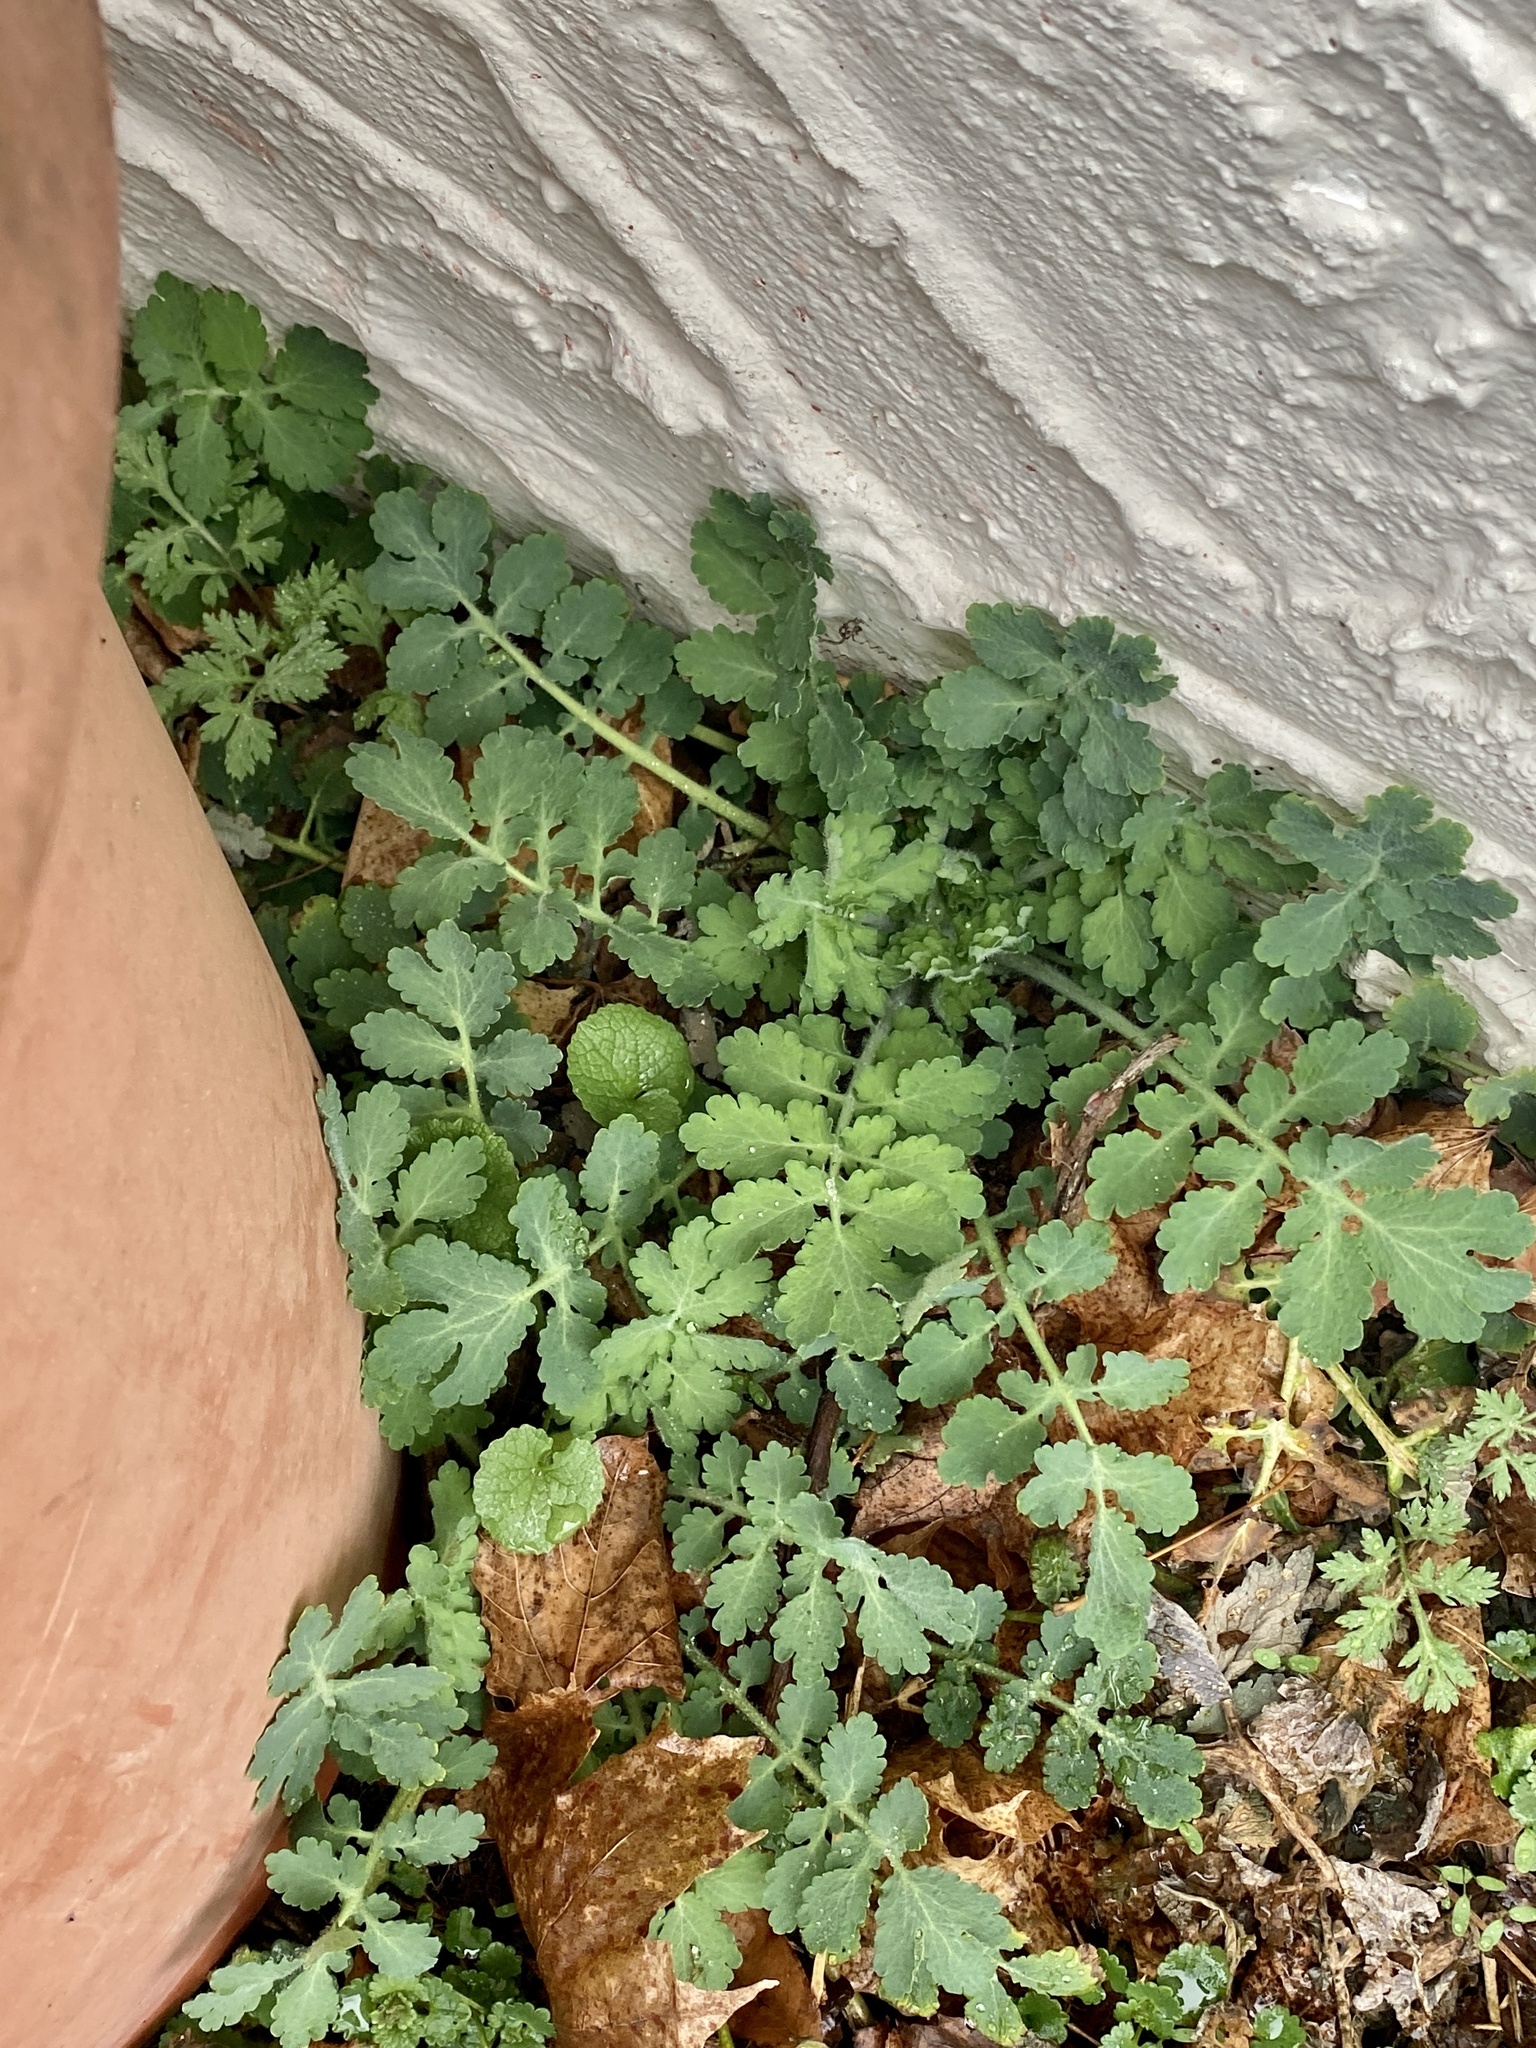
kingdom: Plantae
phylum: Tracheophyta
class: Magnoliopsida
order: Ranunculales
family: Papaveraceae
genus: Chelidonium
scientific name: Chelidonium majus
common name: Greater celandine
